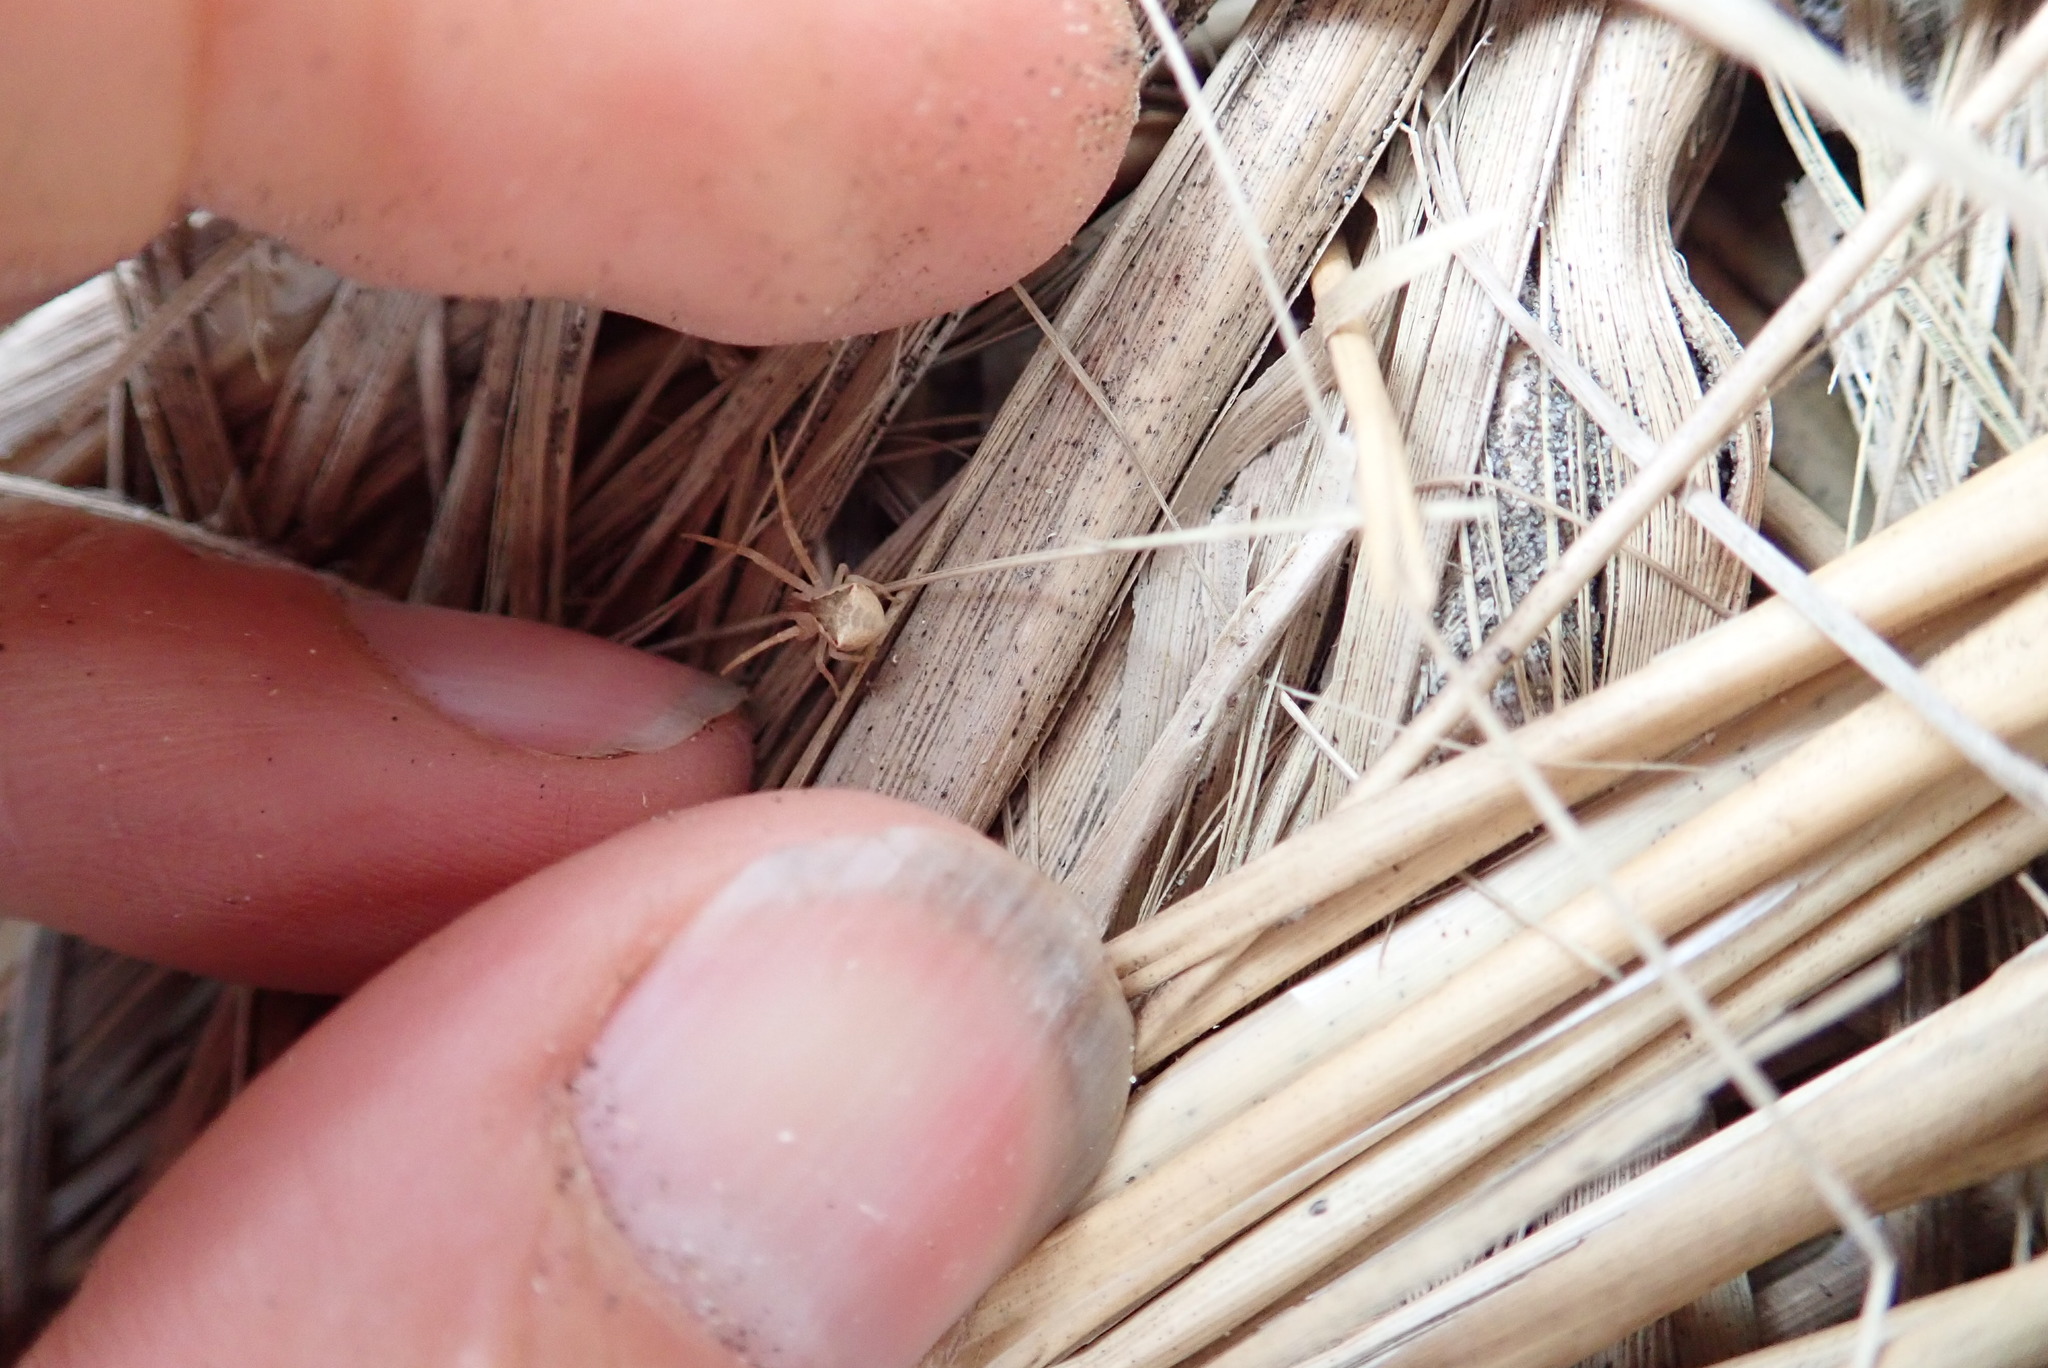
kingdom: Animalia
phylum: Arthropoda
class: Arachnida
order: Araneae
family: Thomisidae
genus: Sidymella
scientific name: Sidymella trapezia
